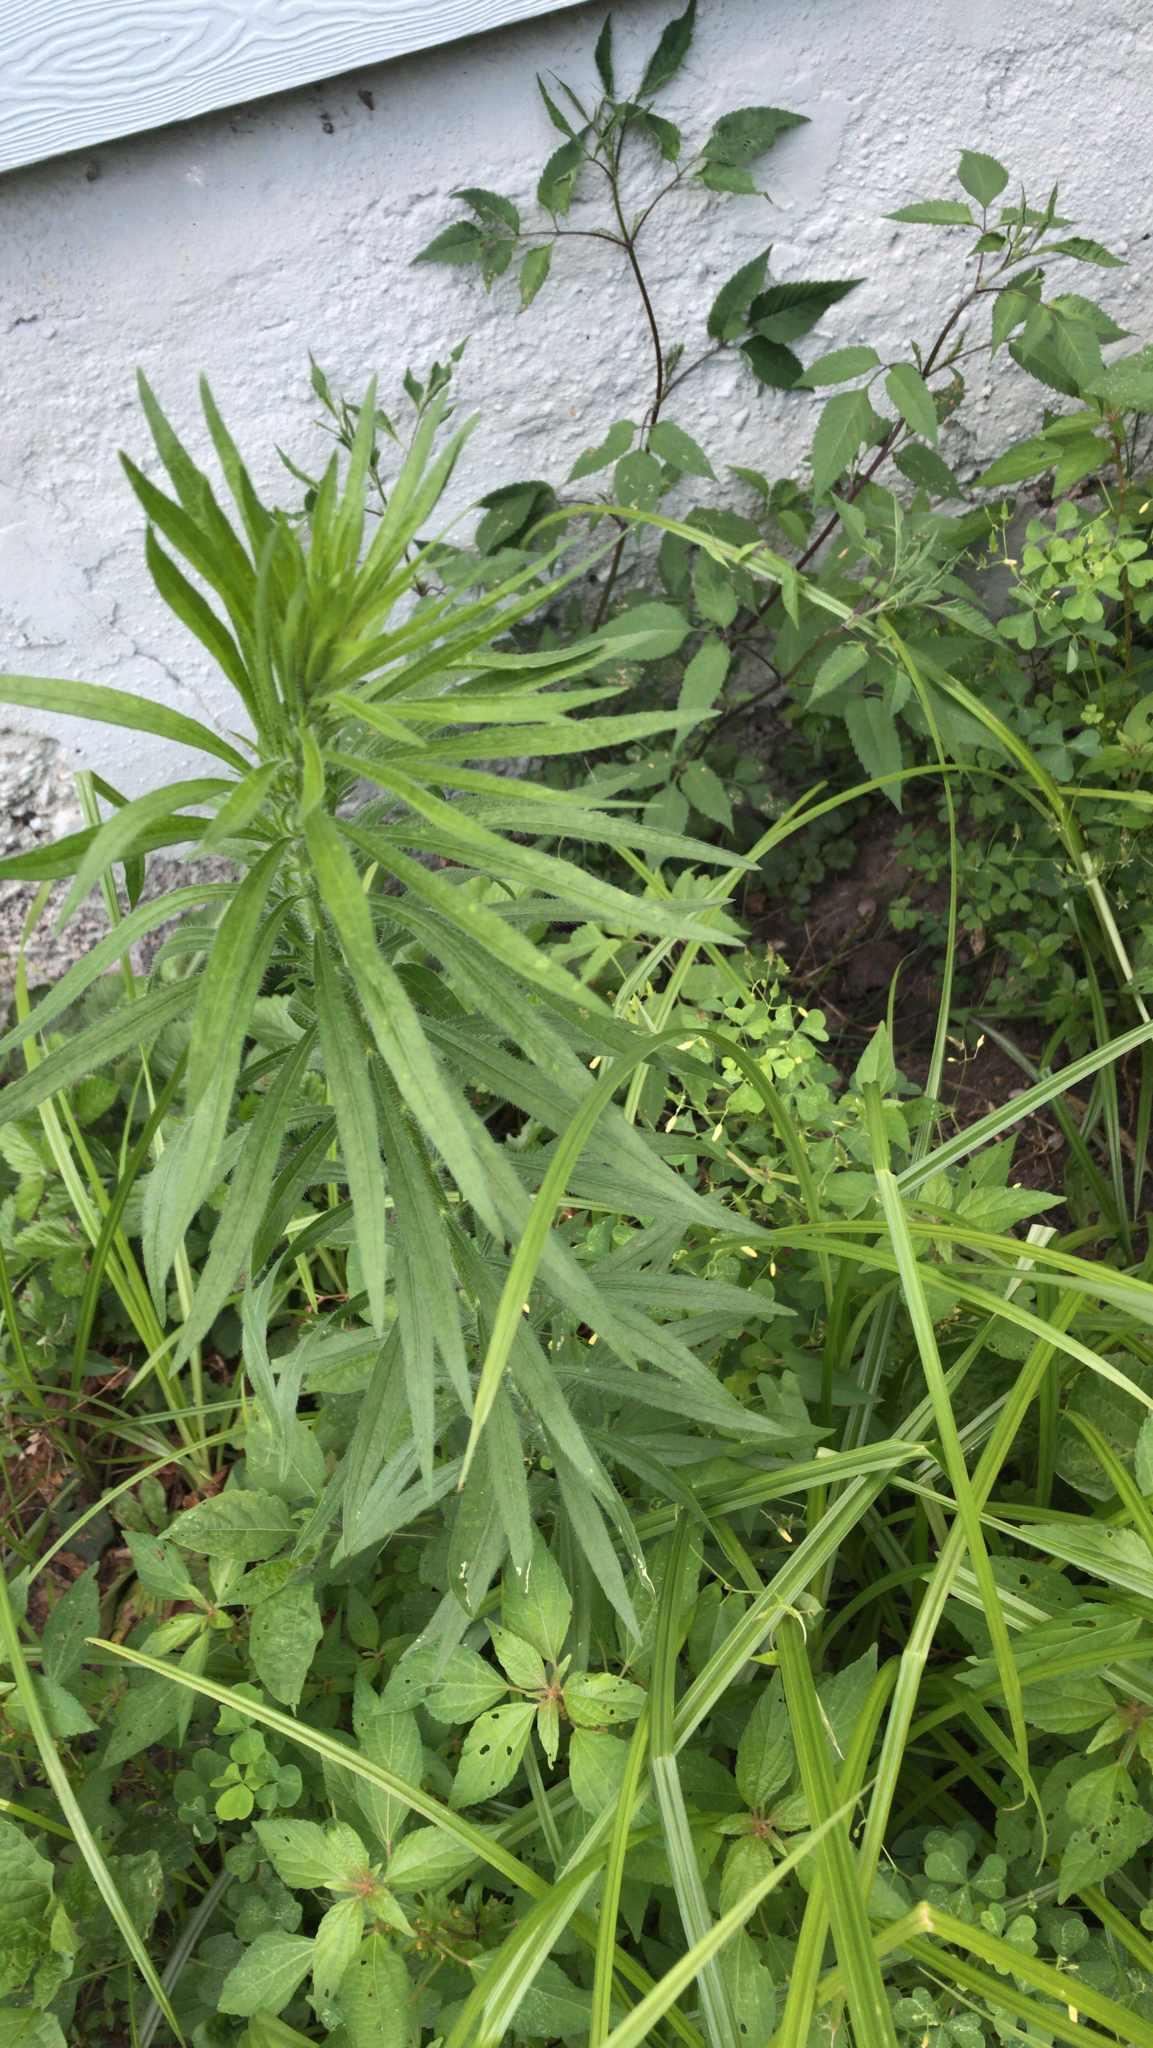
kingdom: Plantae
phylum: Tracheophyta
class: Magnoliopsida
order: Asterales
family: Asteraceae
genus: Erigeron
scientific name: Erigeron canadensis
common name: Canadian fleabane
